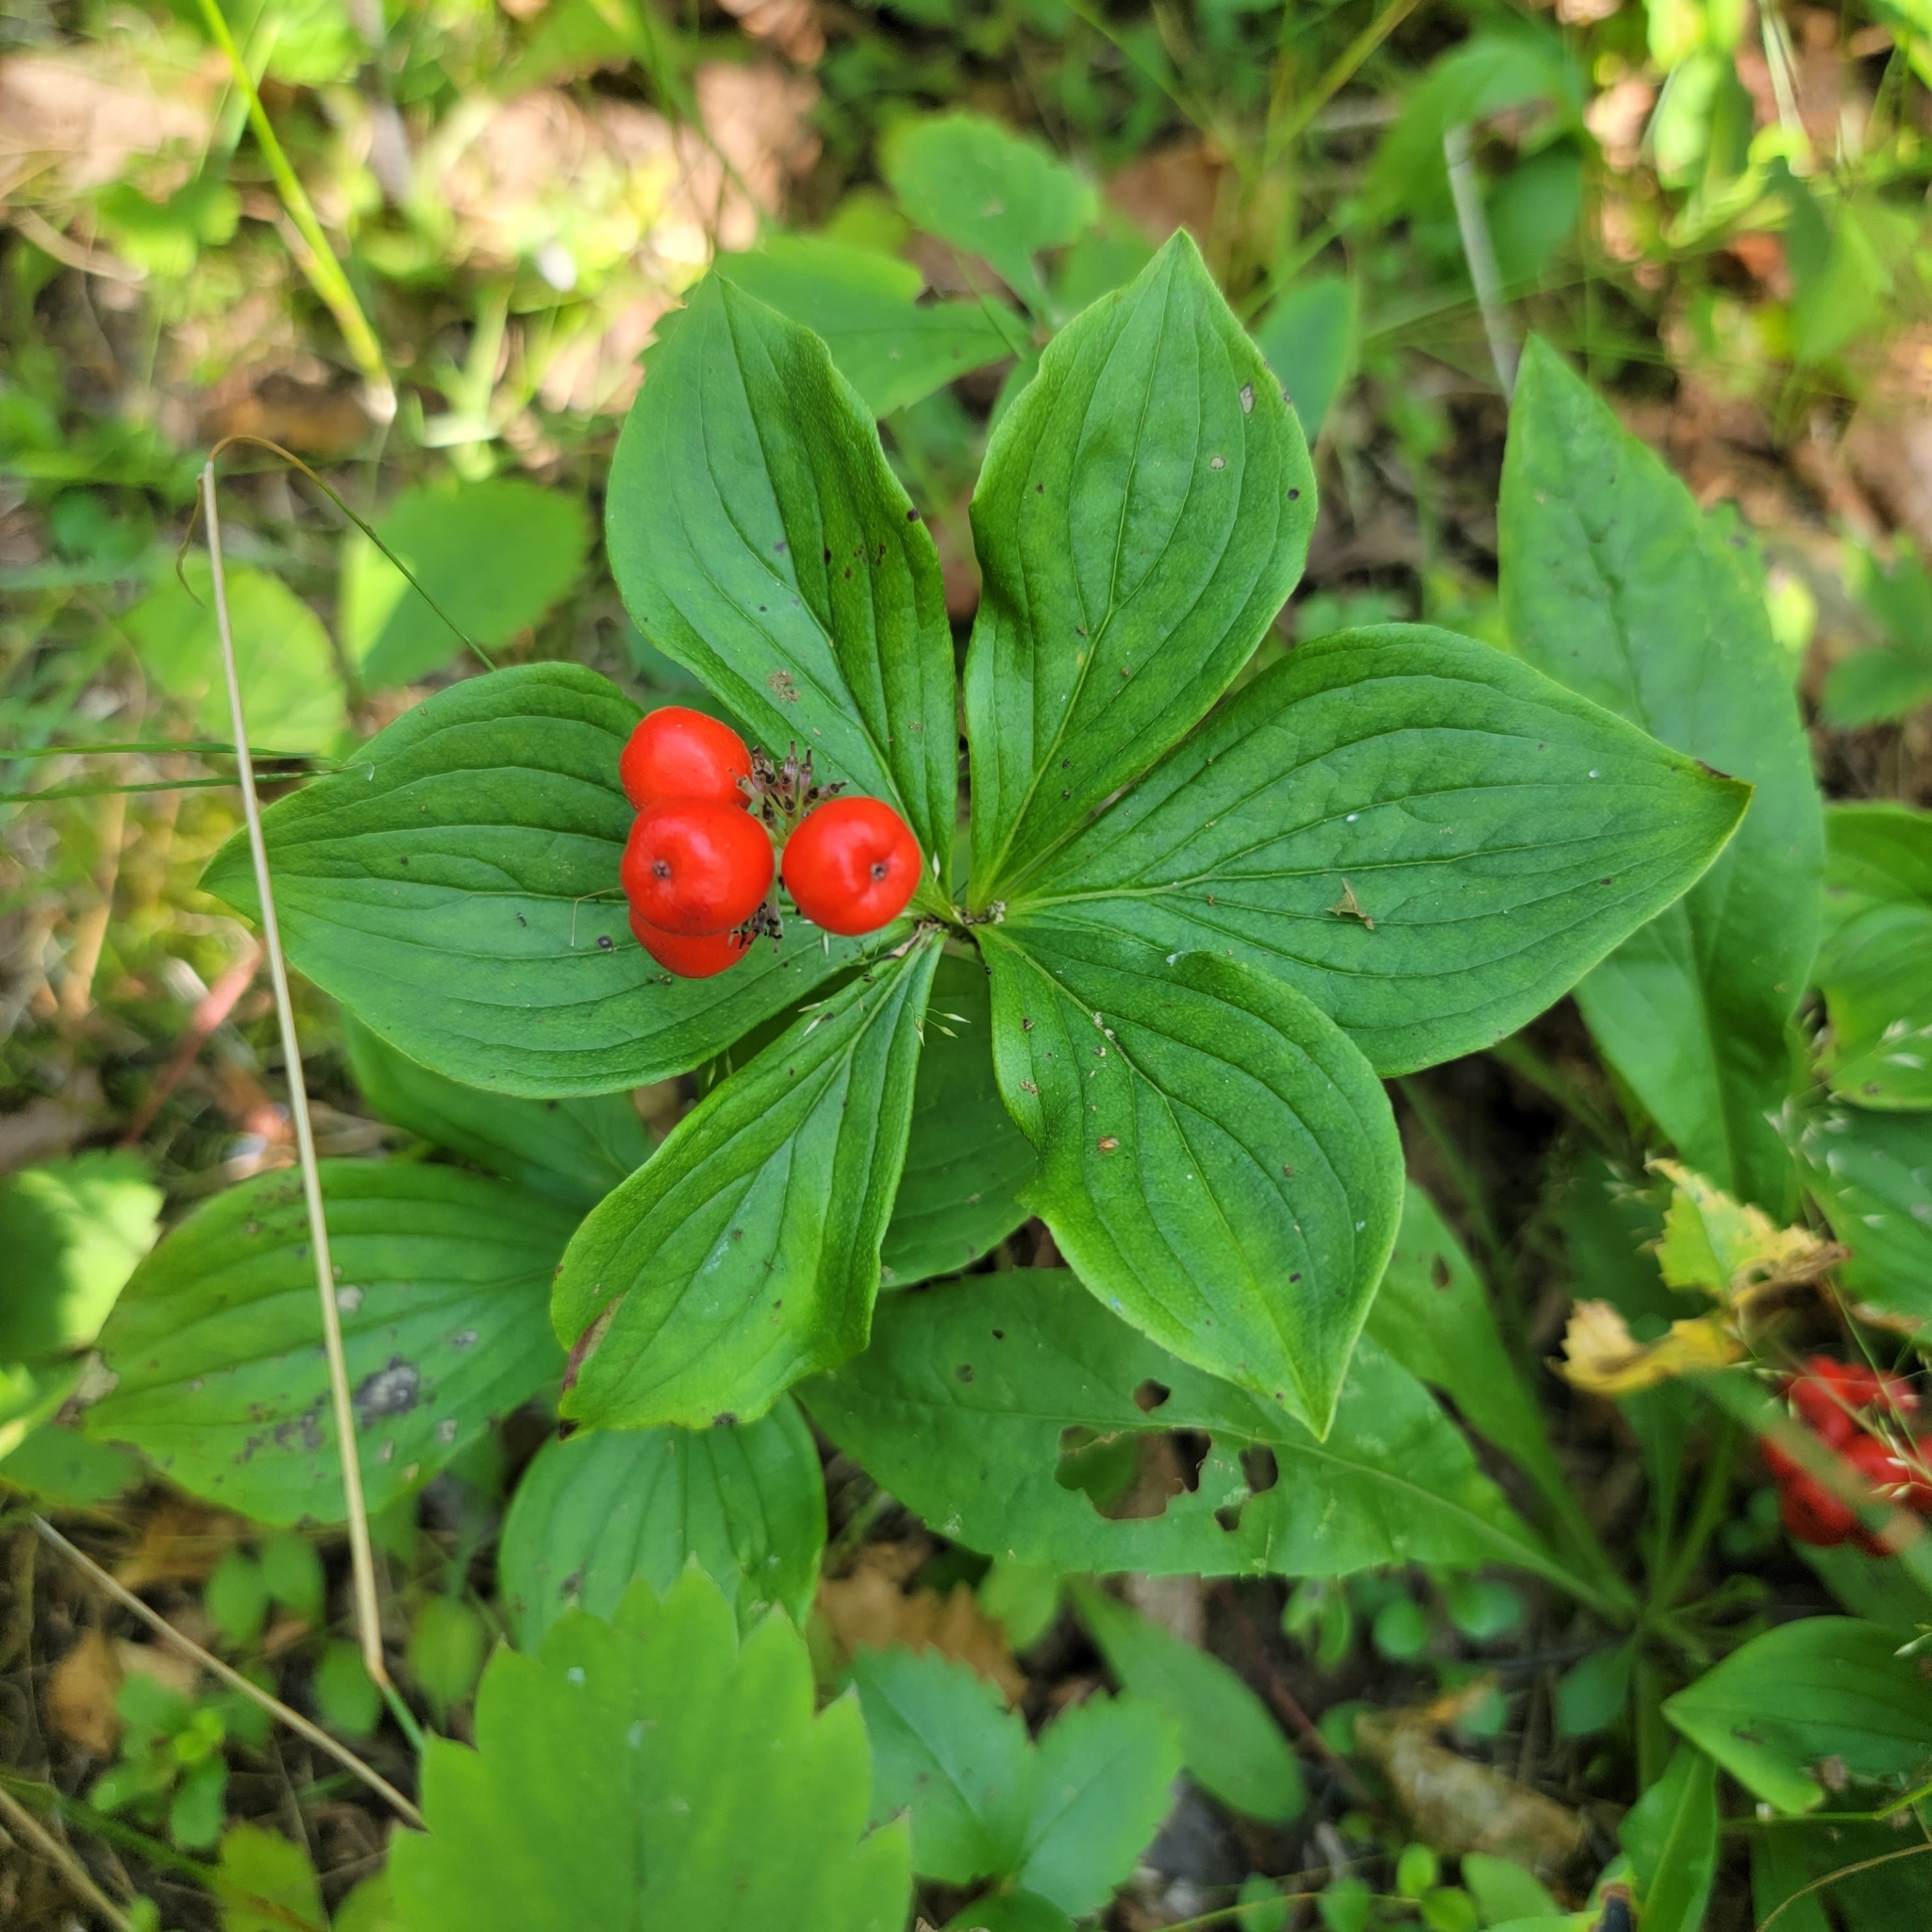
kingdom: Plantae
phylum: Tracheophyta
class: Magnoliopsida
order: Cornales
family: Cornaceae
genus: Cornus
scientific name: Cornus canadensis
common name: Creeping dogwood
